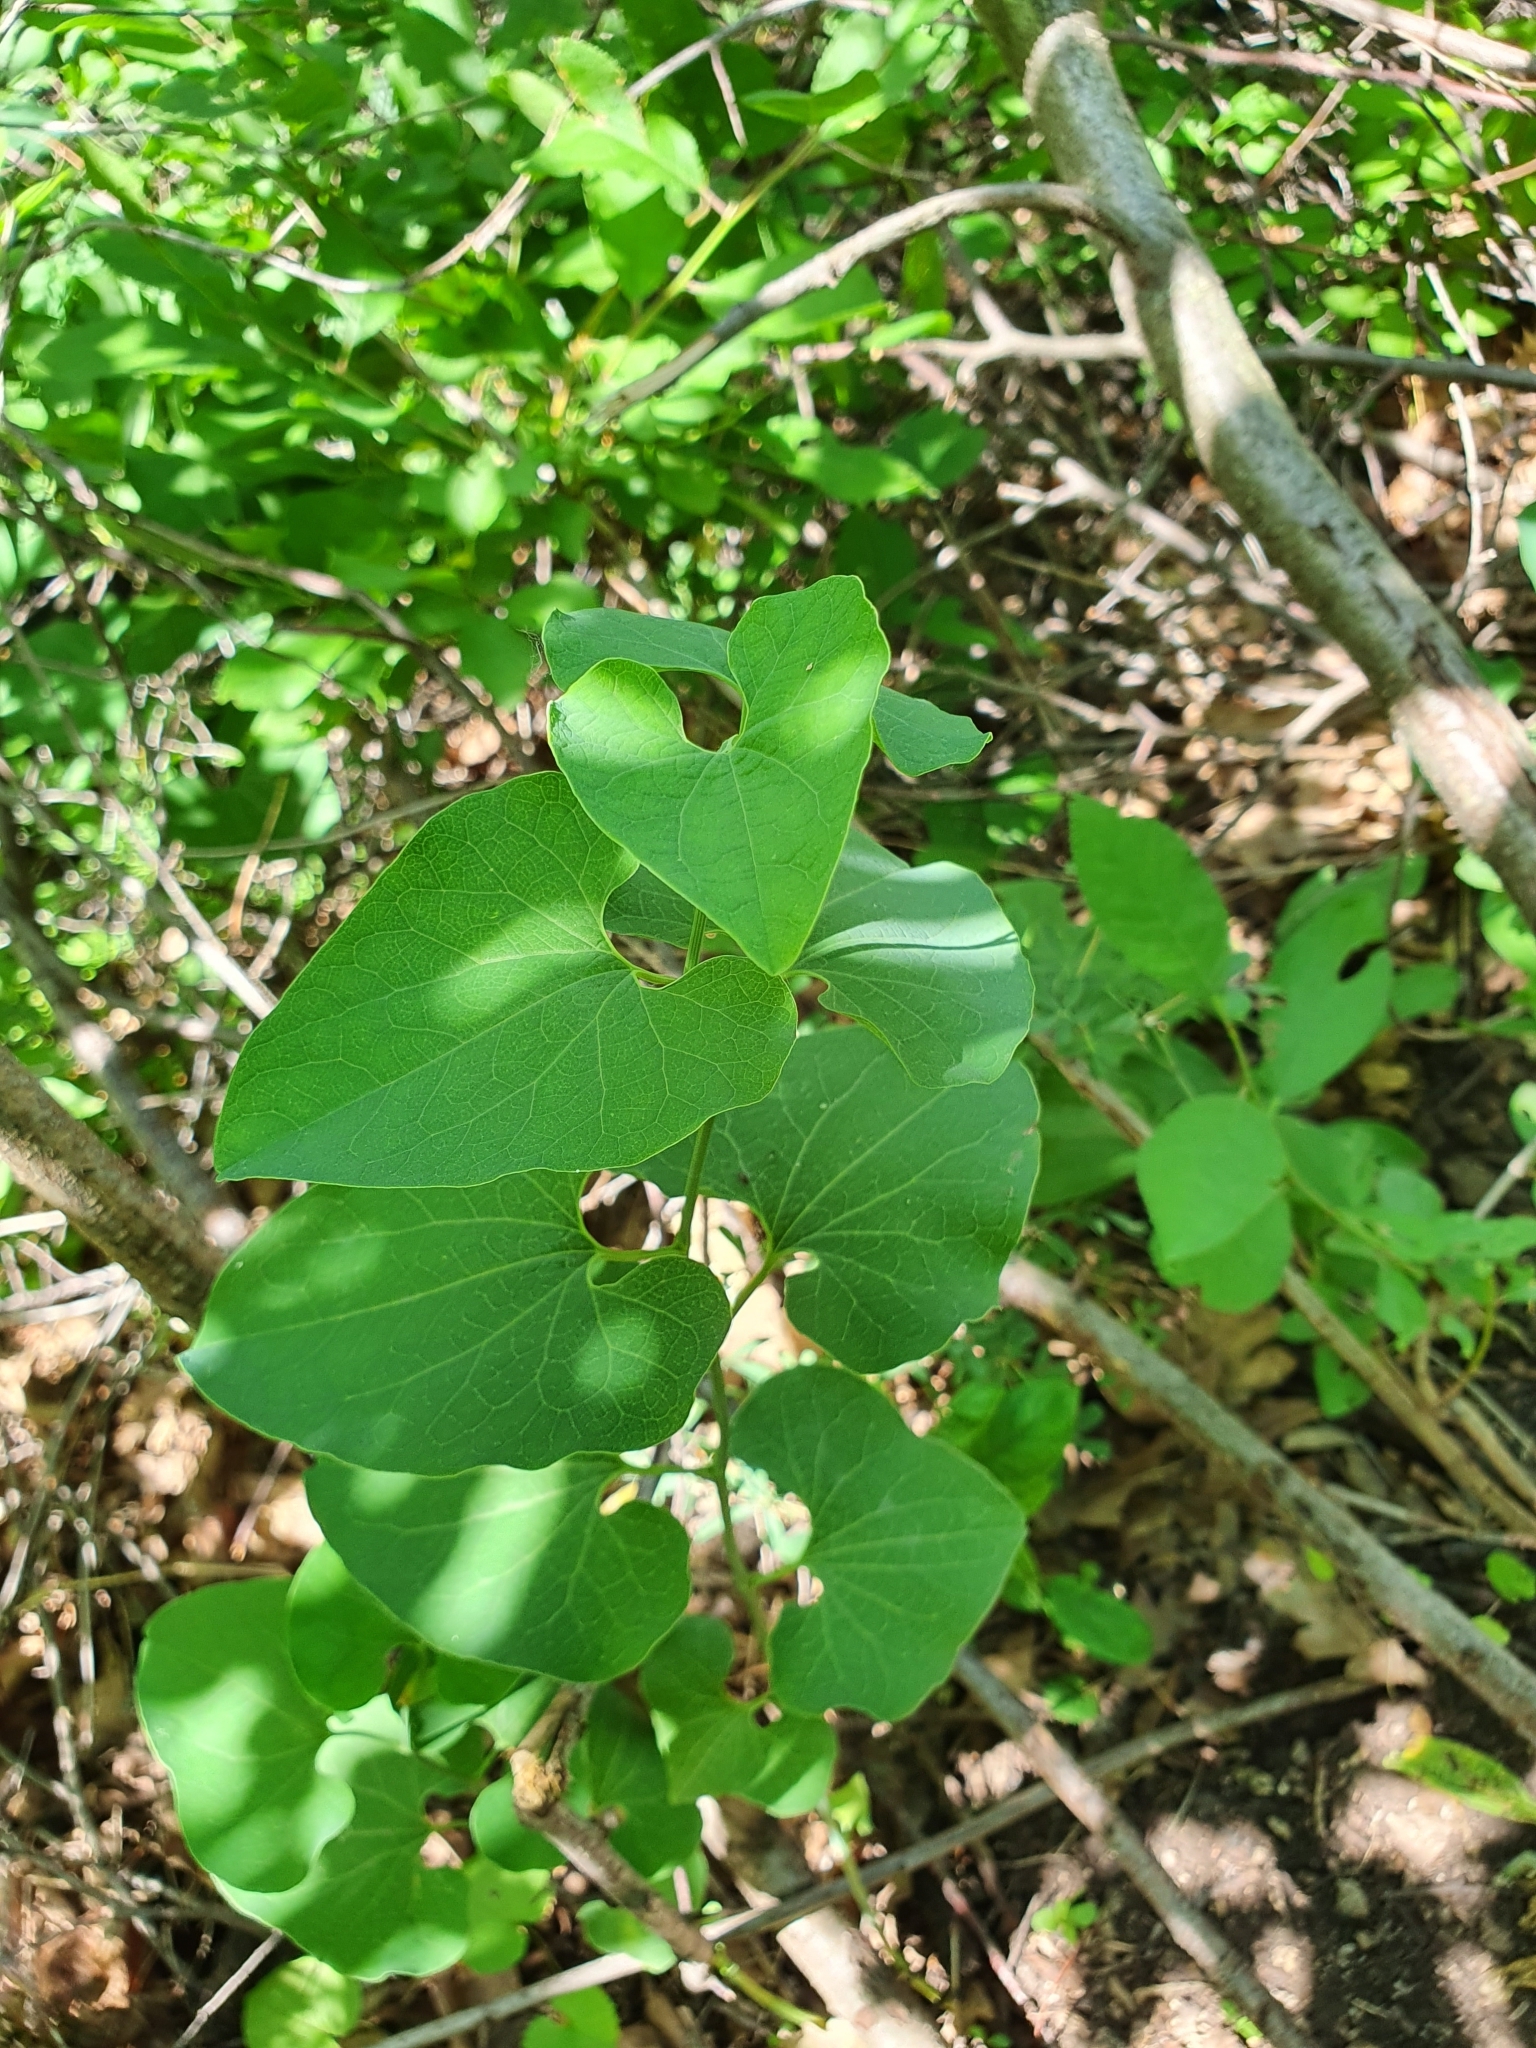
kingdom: Plantae
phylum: Tracheophyta
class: Magnoliopsida
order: Piperales
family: Aristolochiaceae
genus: Aristolochia
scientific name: Aristolochia clematitis
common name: Birthwort
